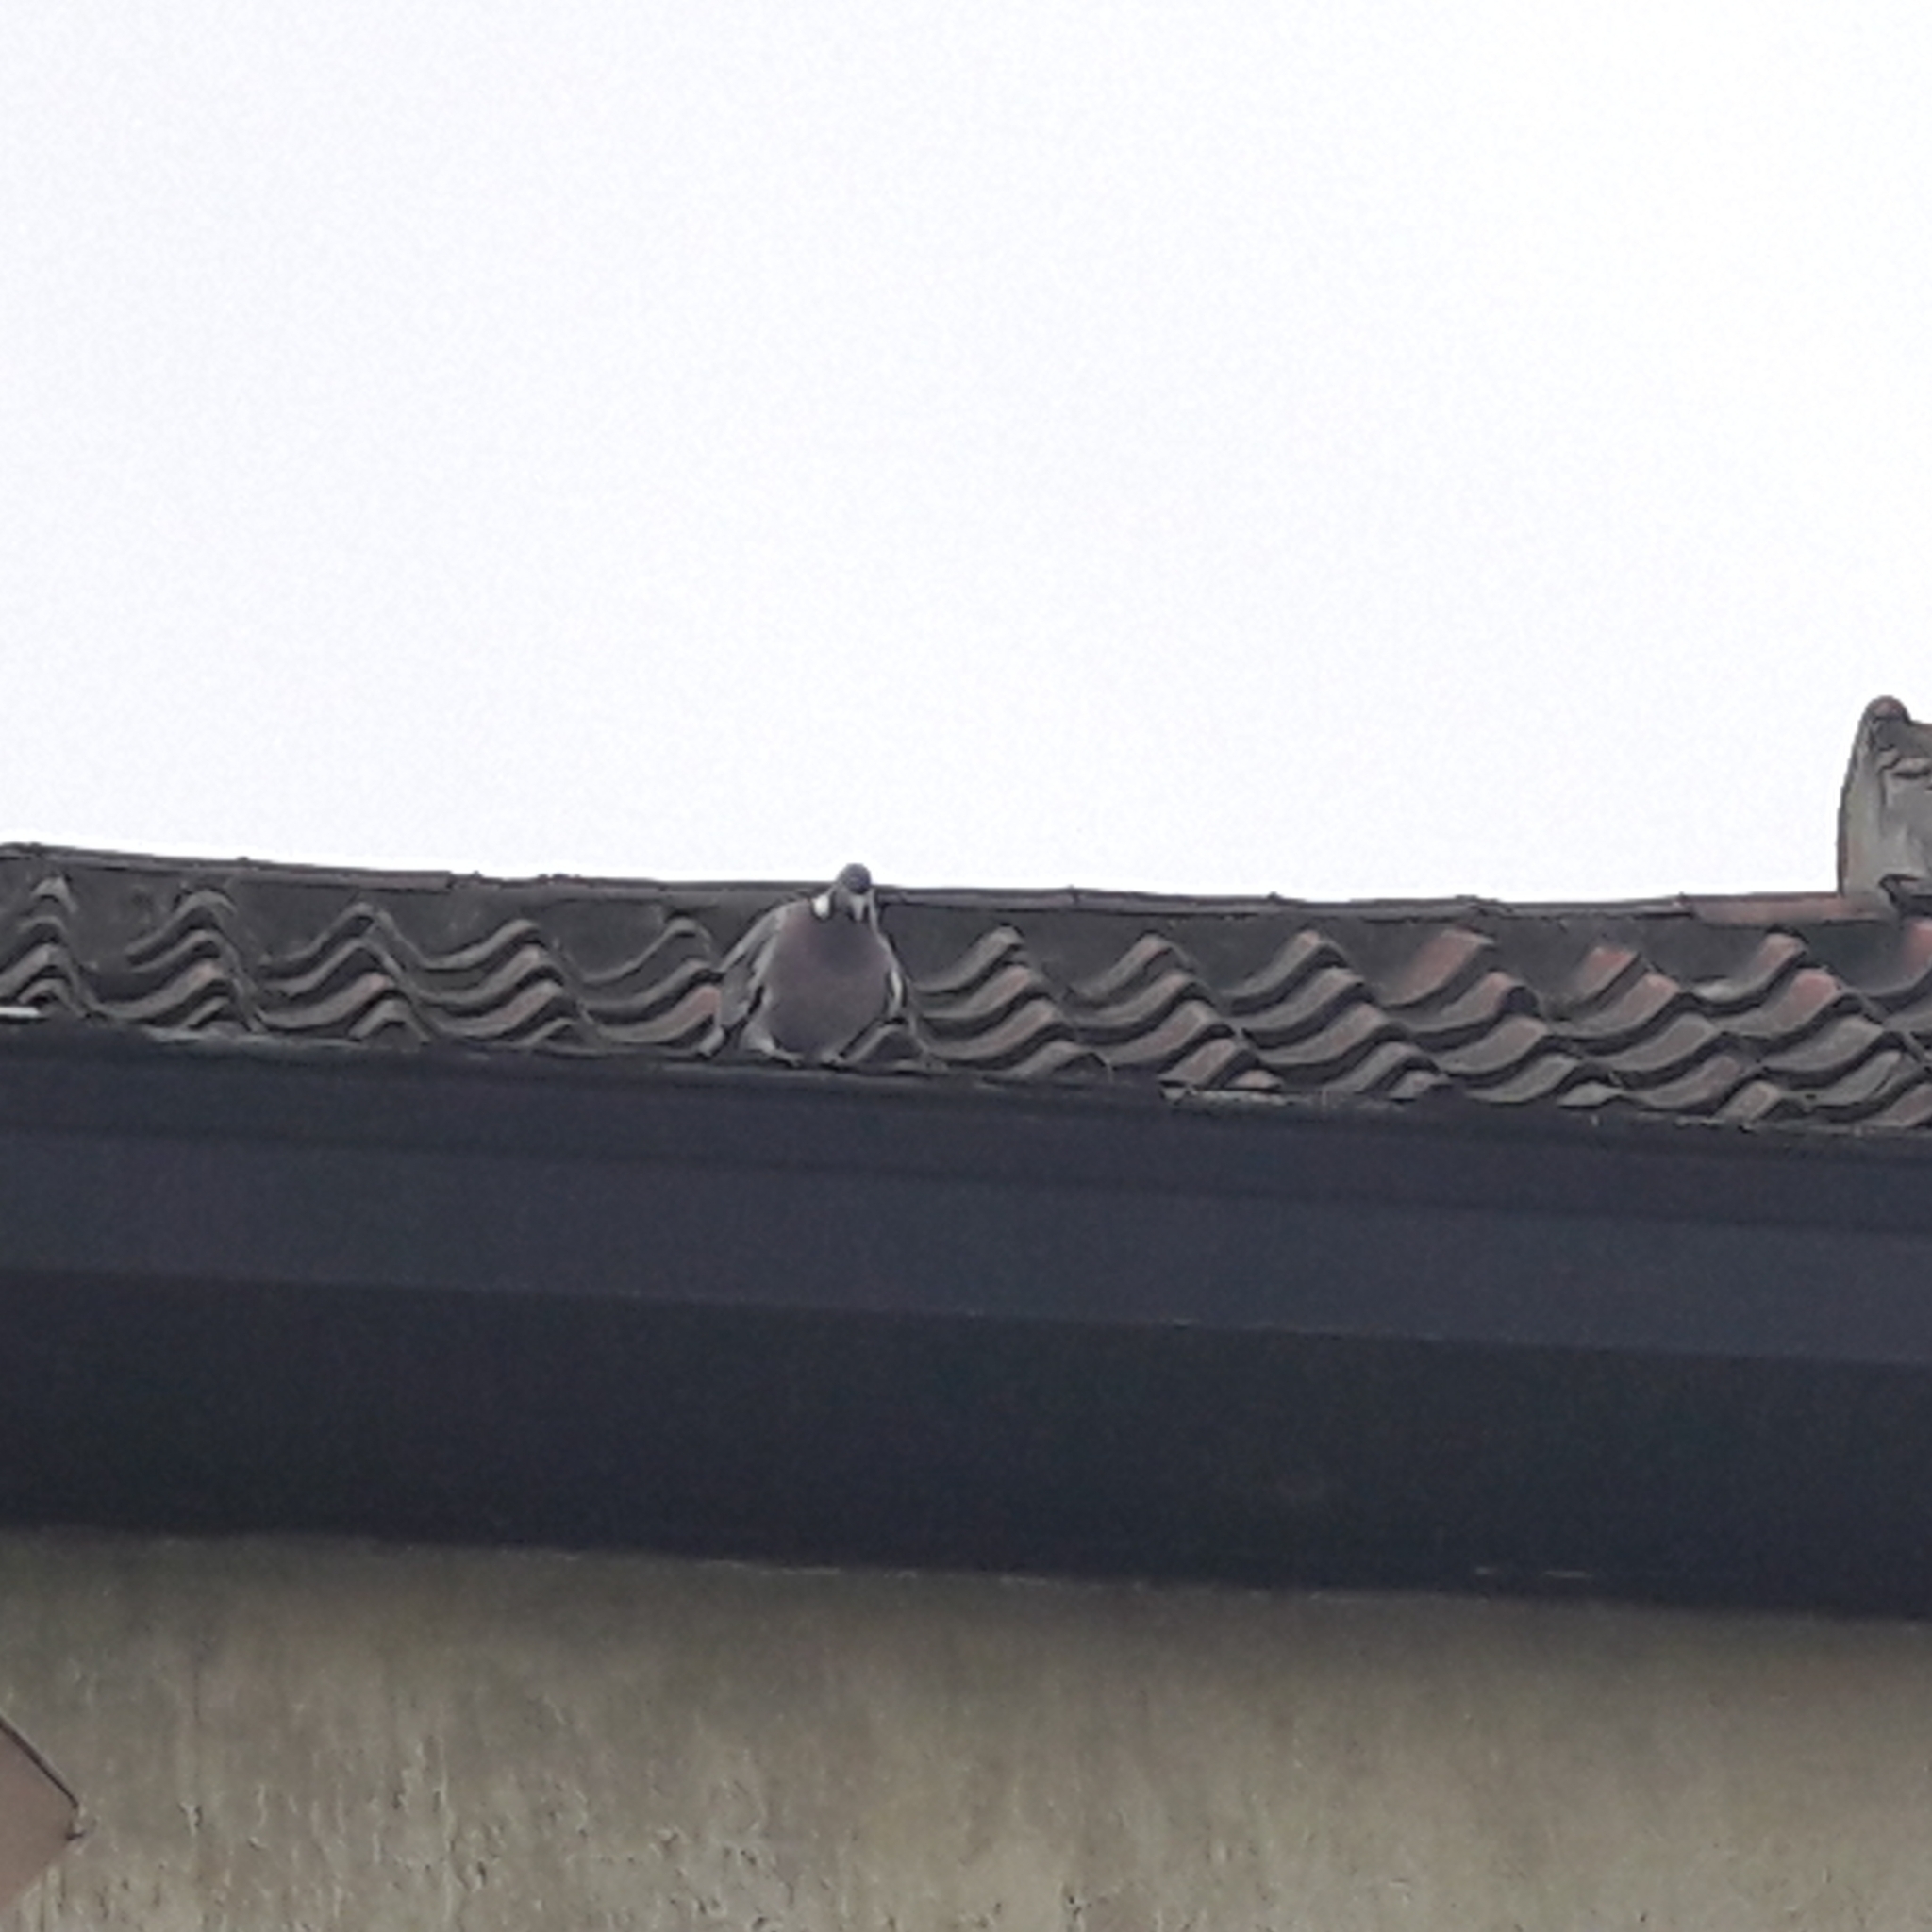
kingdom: Animalia
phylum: Chordata
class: Aves
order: Columbiformes
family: Columbidae
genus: Columba
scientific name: Columba palumbus
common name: Common wood pigeon
